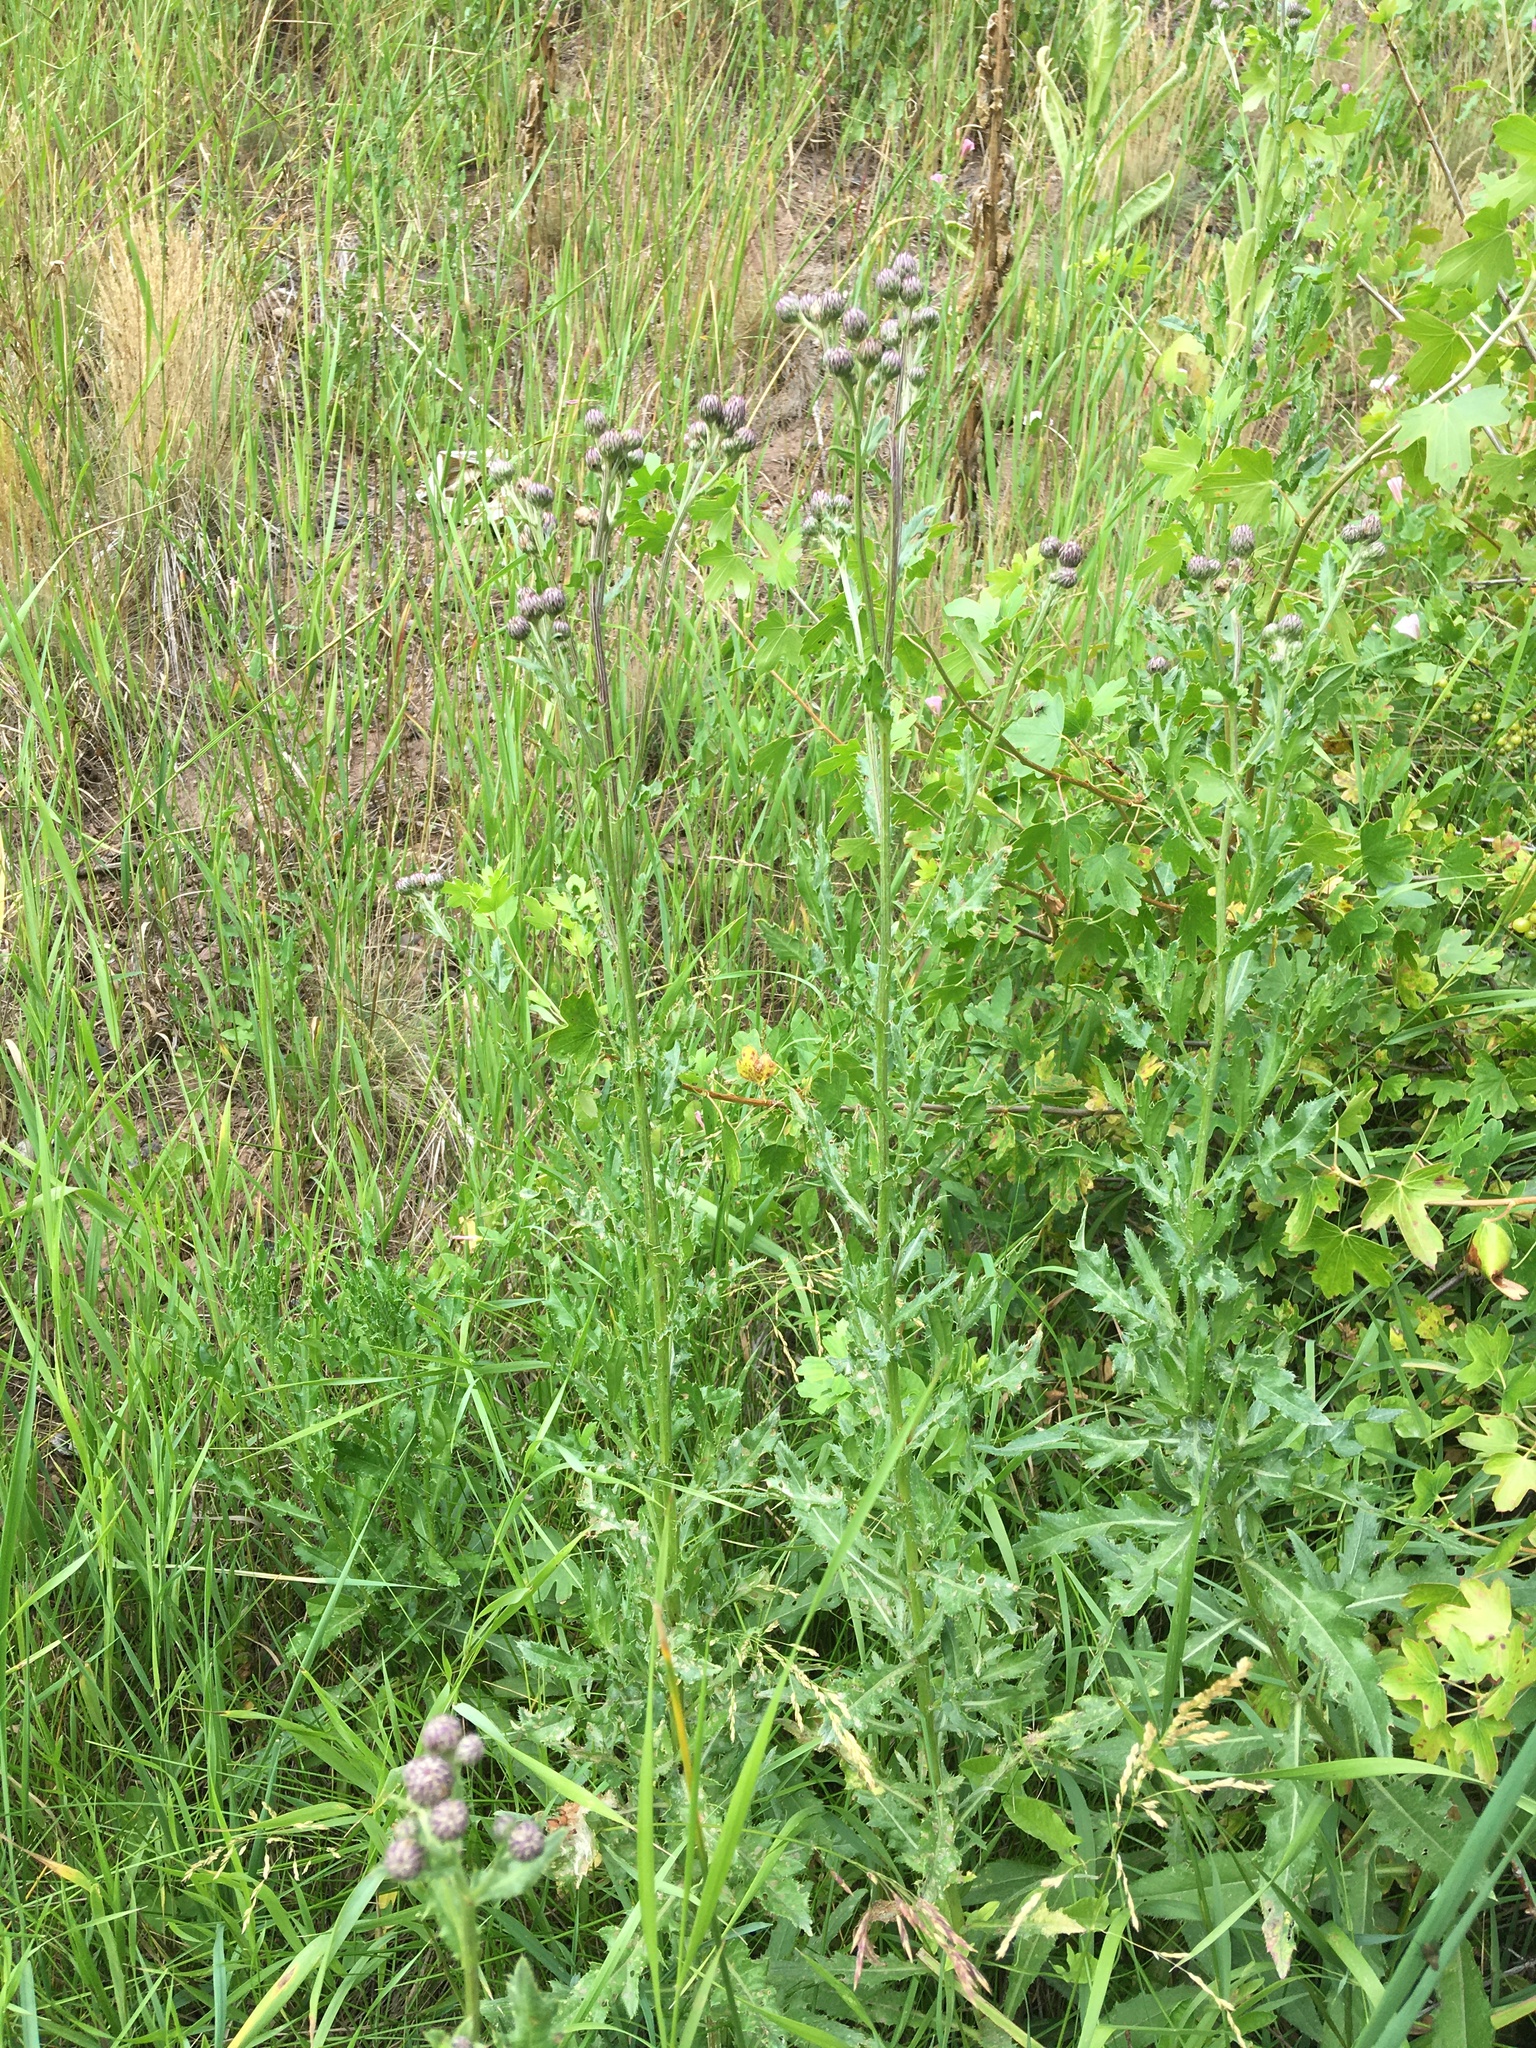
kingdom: Plantae
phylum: Tracheophyta
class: Magnoliopsida
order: Asterales
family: Asteraceae
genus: Cirsium
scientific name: Cirsium arvense
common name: Creeping thistle
